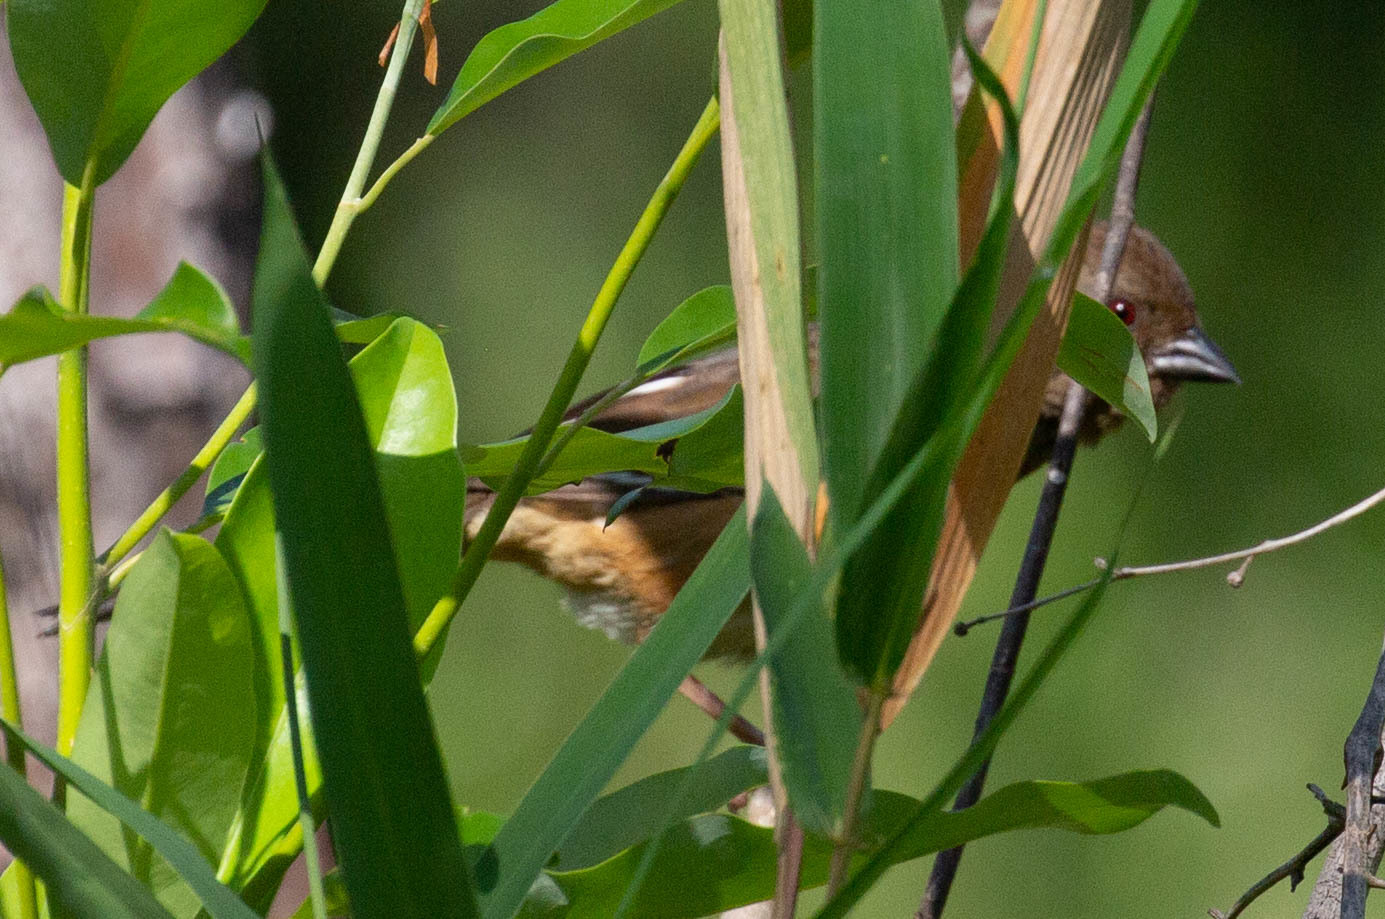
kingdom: Animalia
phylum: Chordata
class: Aves
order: Passeriformes
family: Passerellidae
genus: Pipilo
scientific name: Pipilo erythrophthalmus
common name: Eastern towhee
